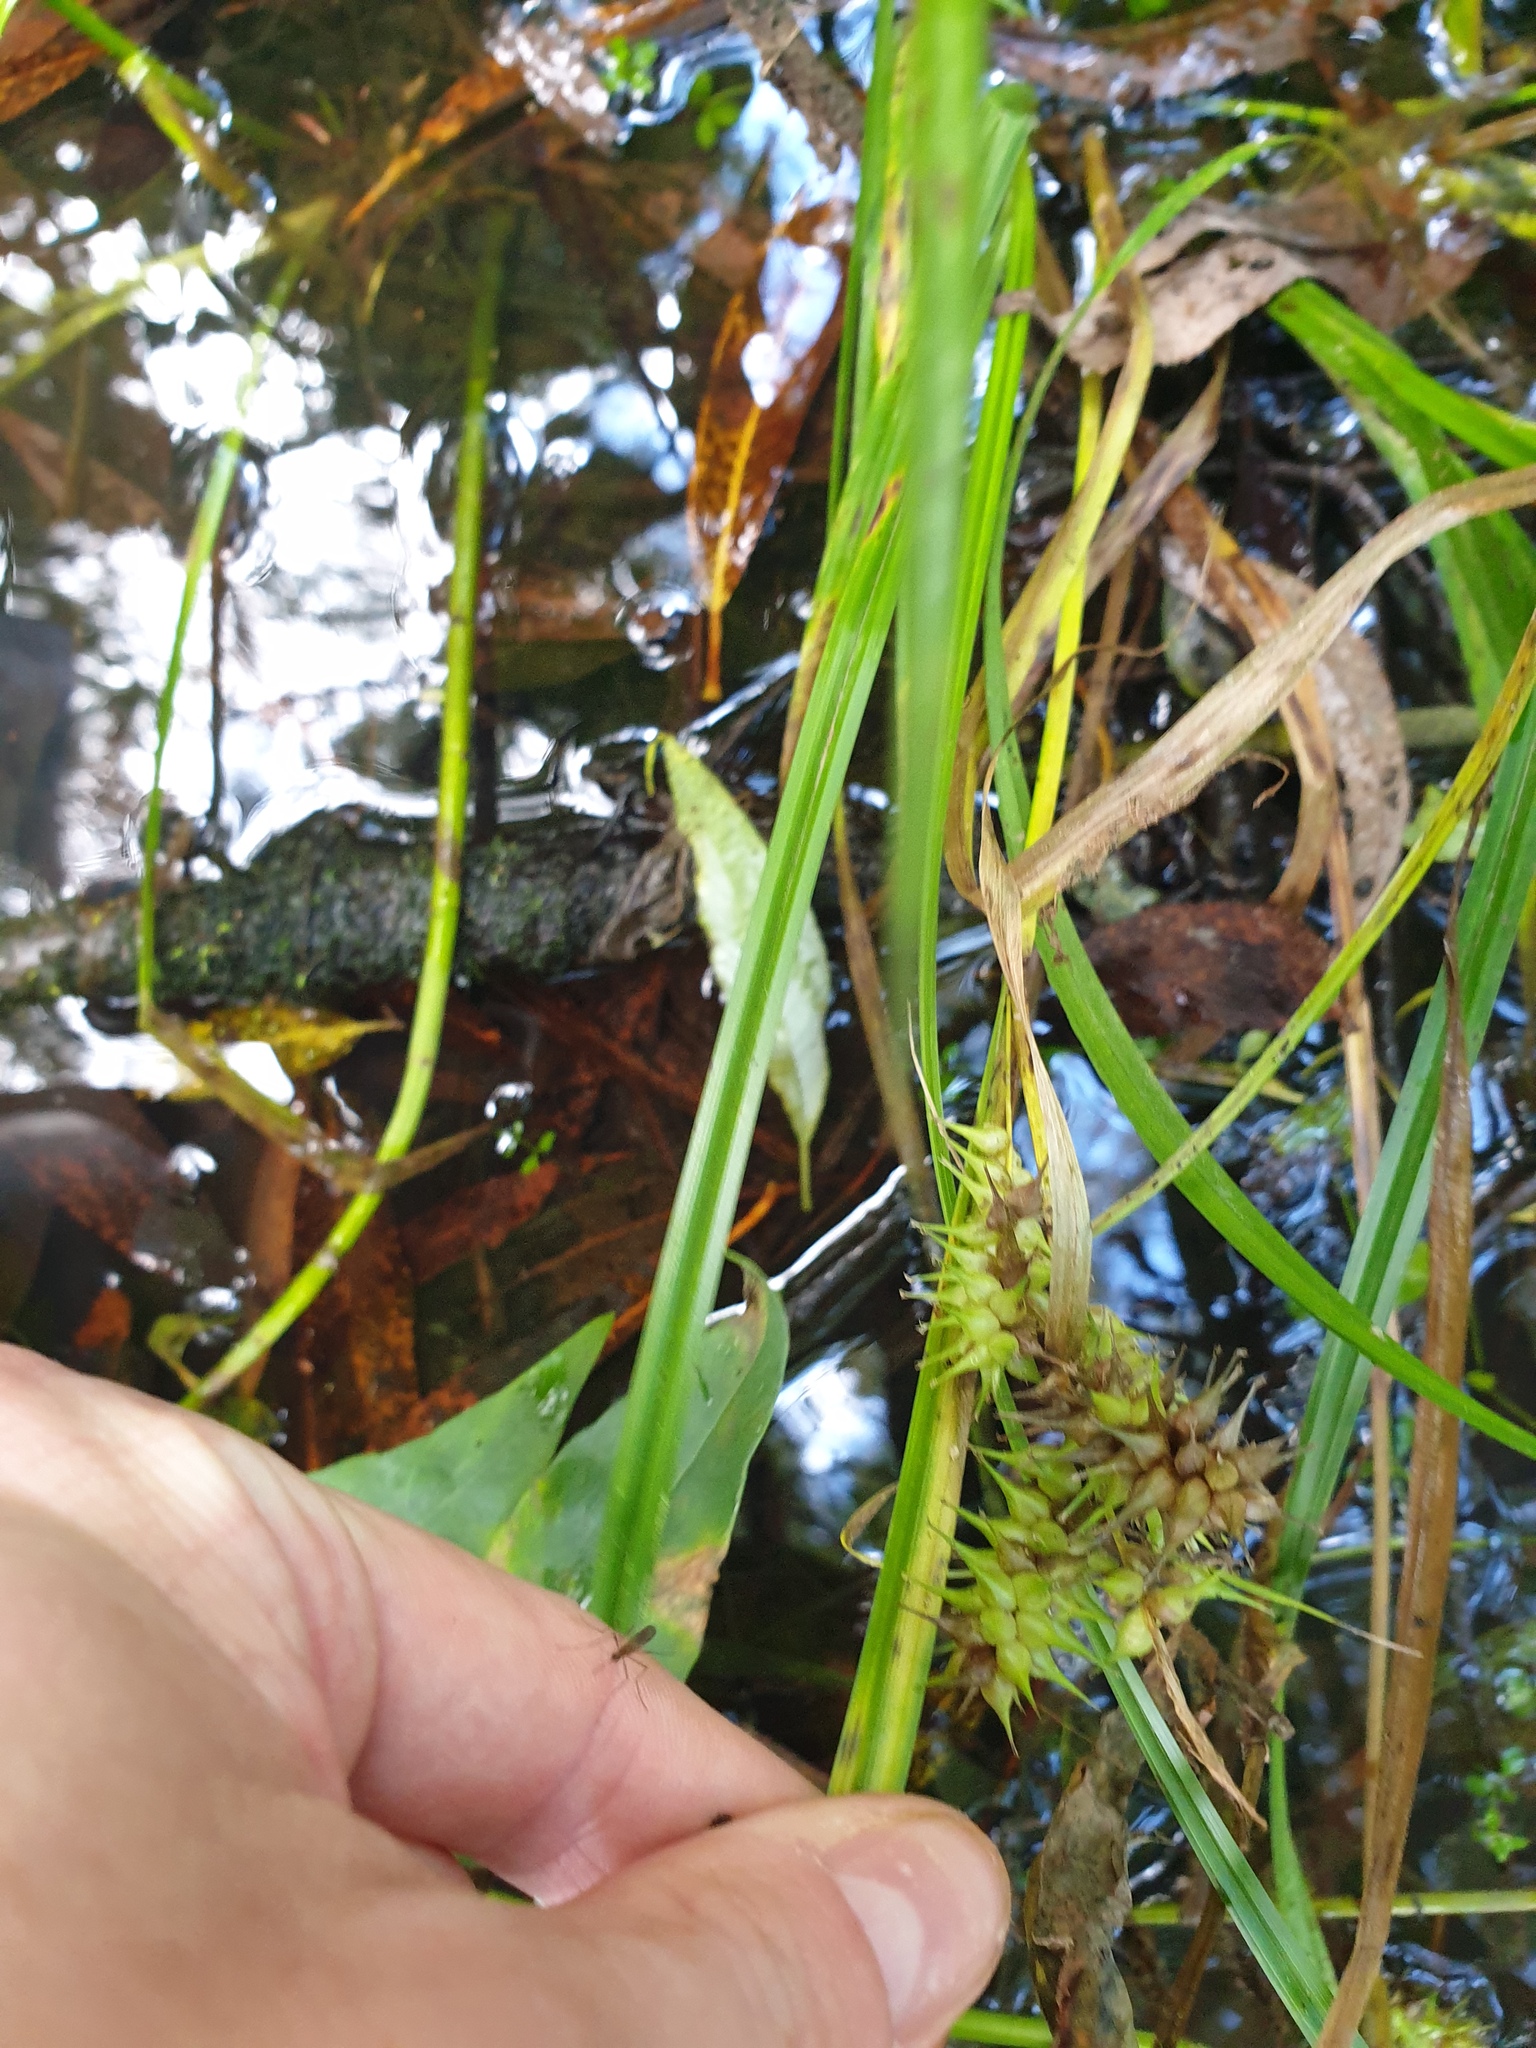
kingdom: Plantae
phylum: Tracheophyta
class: Liliopsida
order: Poales
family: Cyperaceae
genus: Carex
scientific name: Carex retrorsa
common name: Knot-sheath sedge
